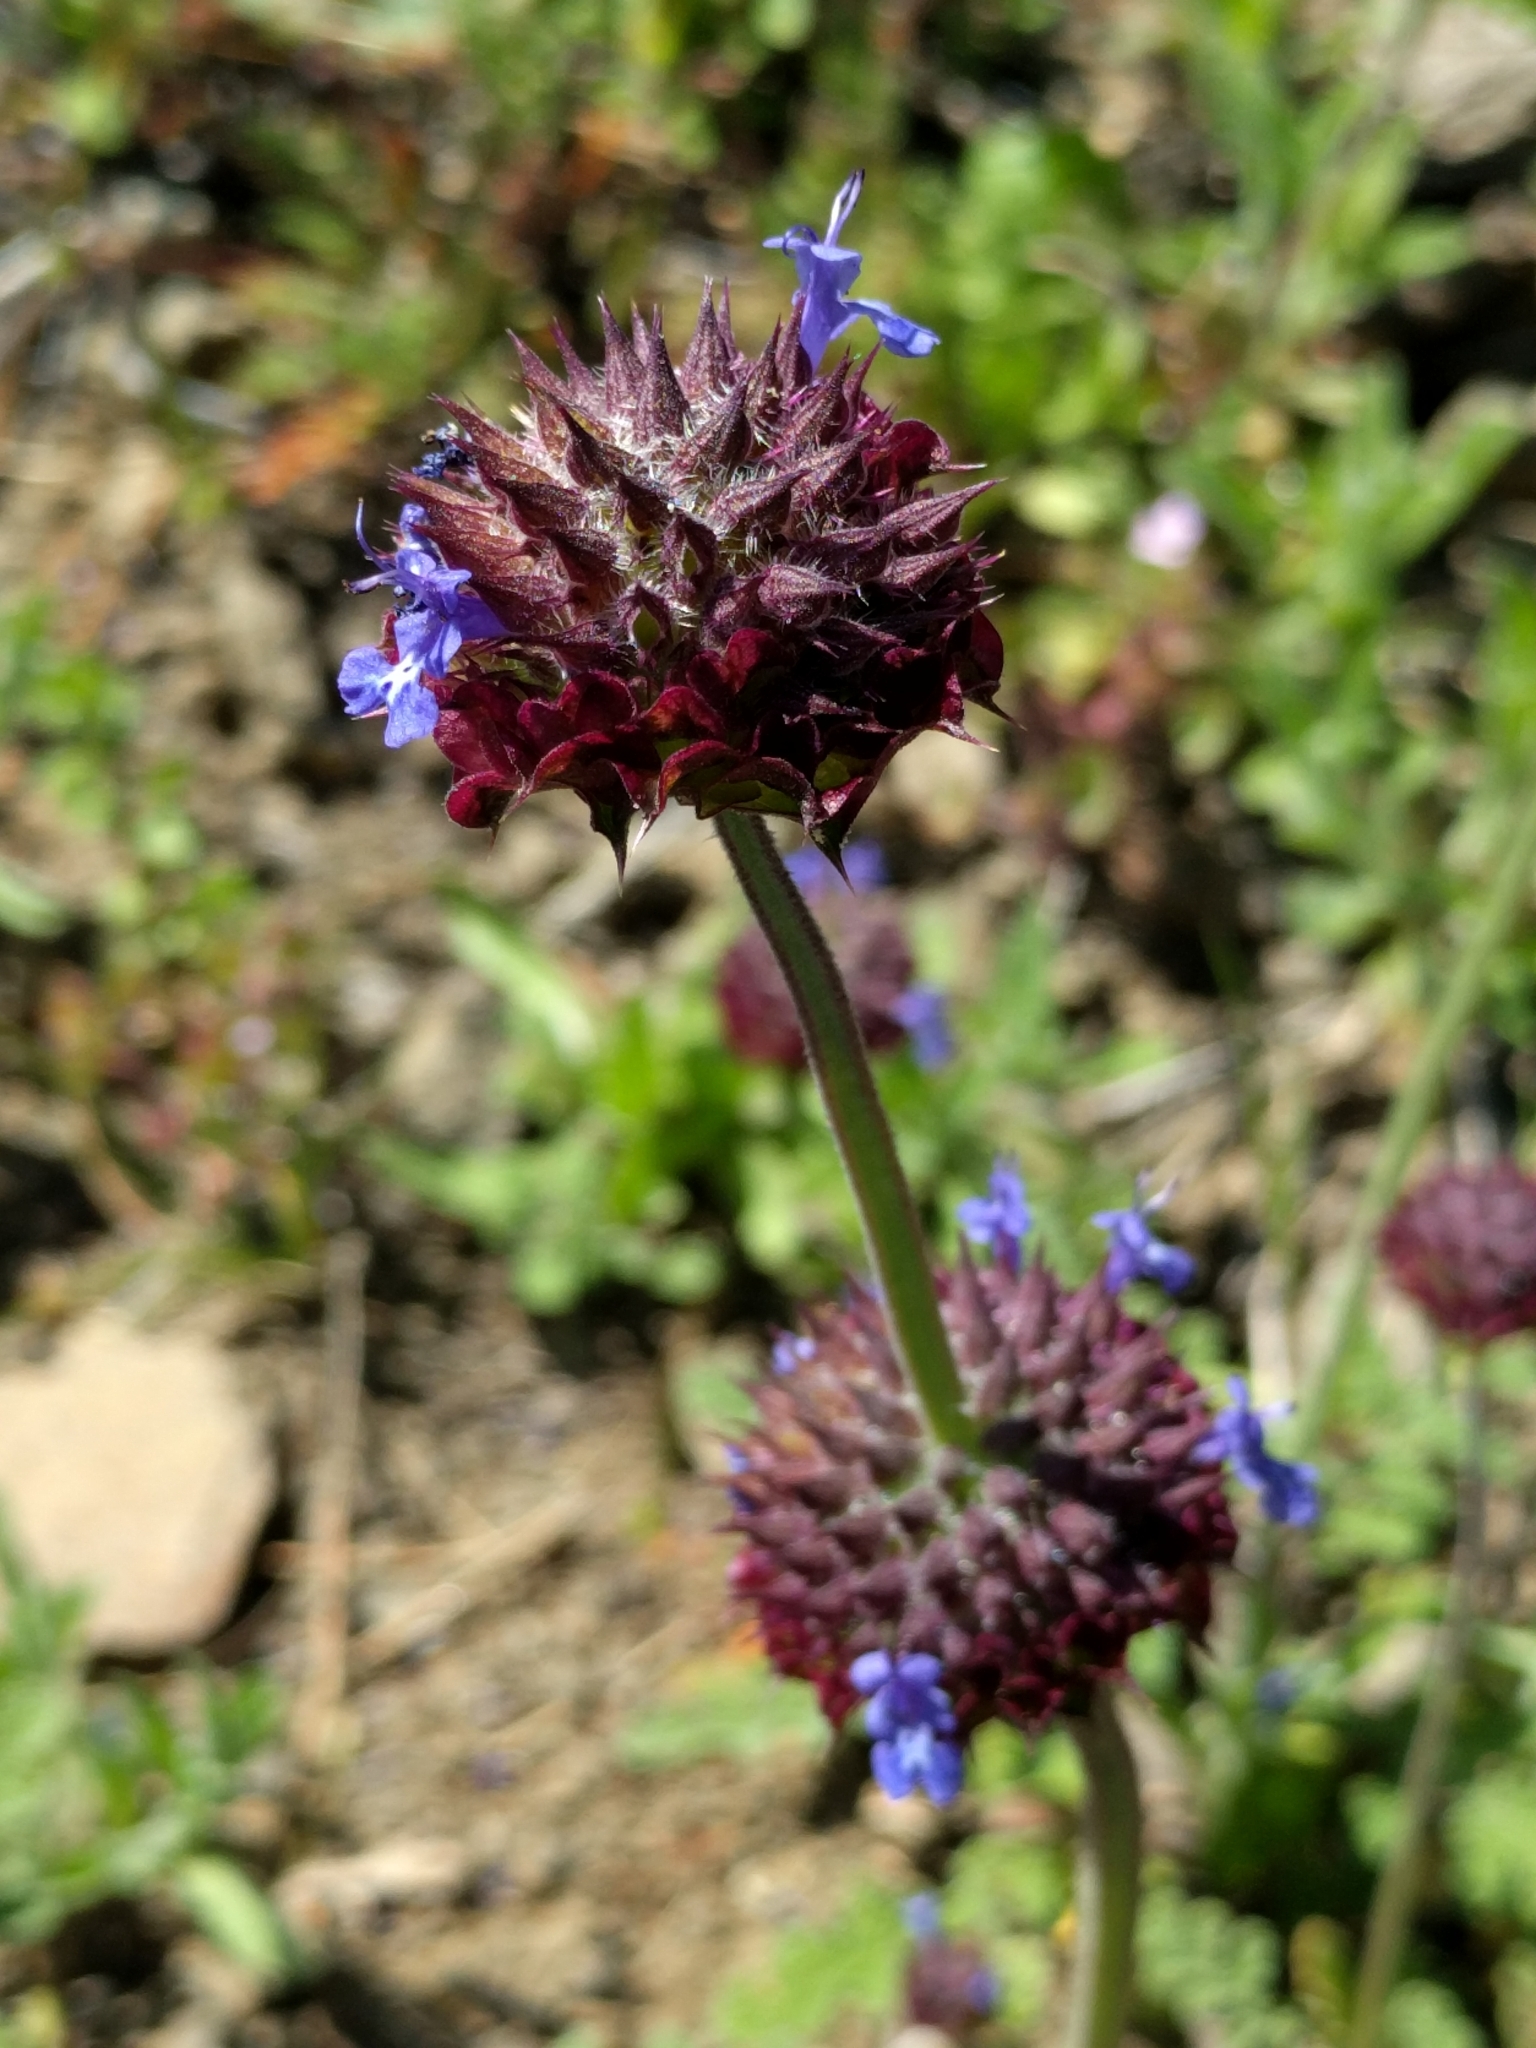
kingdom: Plantae
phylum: Tracheophyta
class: Magnoliopsida
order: Lamiales
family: Lamiaceae
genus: Salvia
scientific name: Salvia columbariae
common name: Chia
